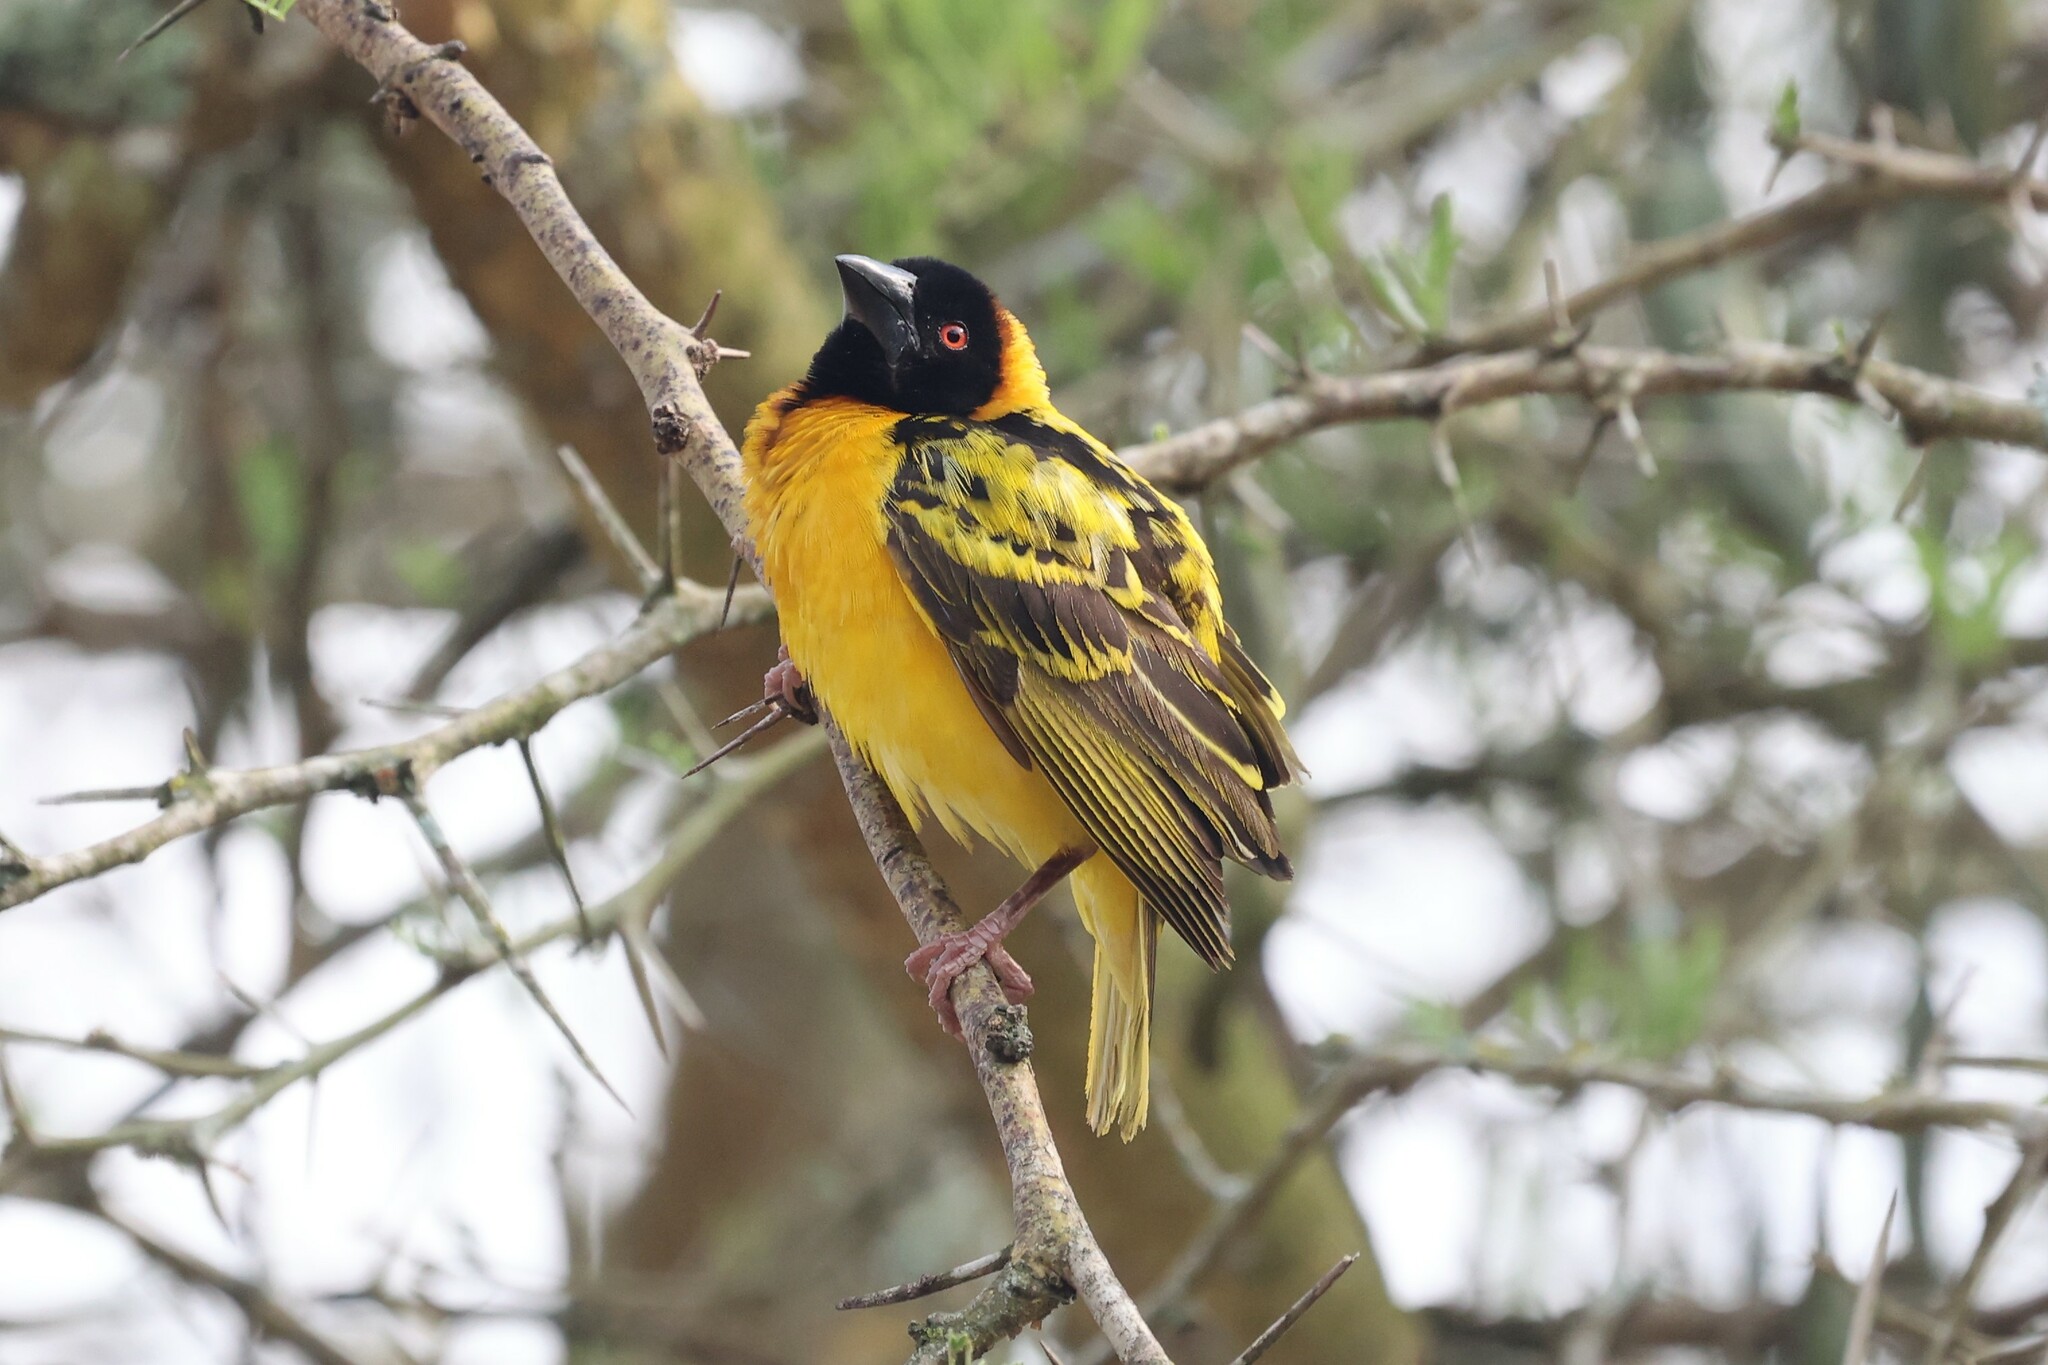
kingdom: Animalia
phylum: Chordata
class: Aves
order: Passeriformes
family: Ploceidae
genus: Ploceus
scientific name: Ploceus cucullatus
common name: Village weaver
